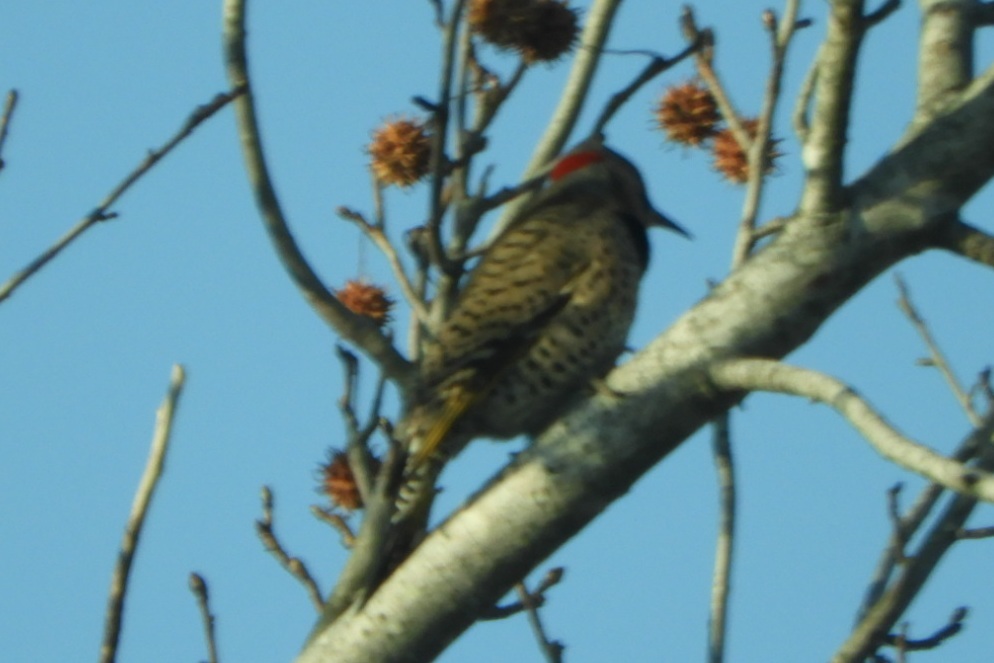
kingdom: Animalia
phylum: Chordata
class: Aves
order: Piciformes
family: Picidae
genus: Colaptes
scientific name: Colaptes auratus
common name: Northern flicker
